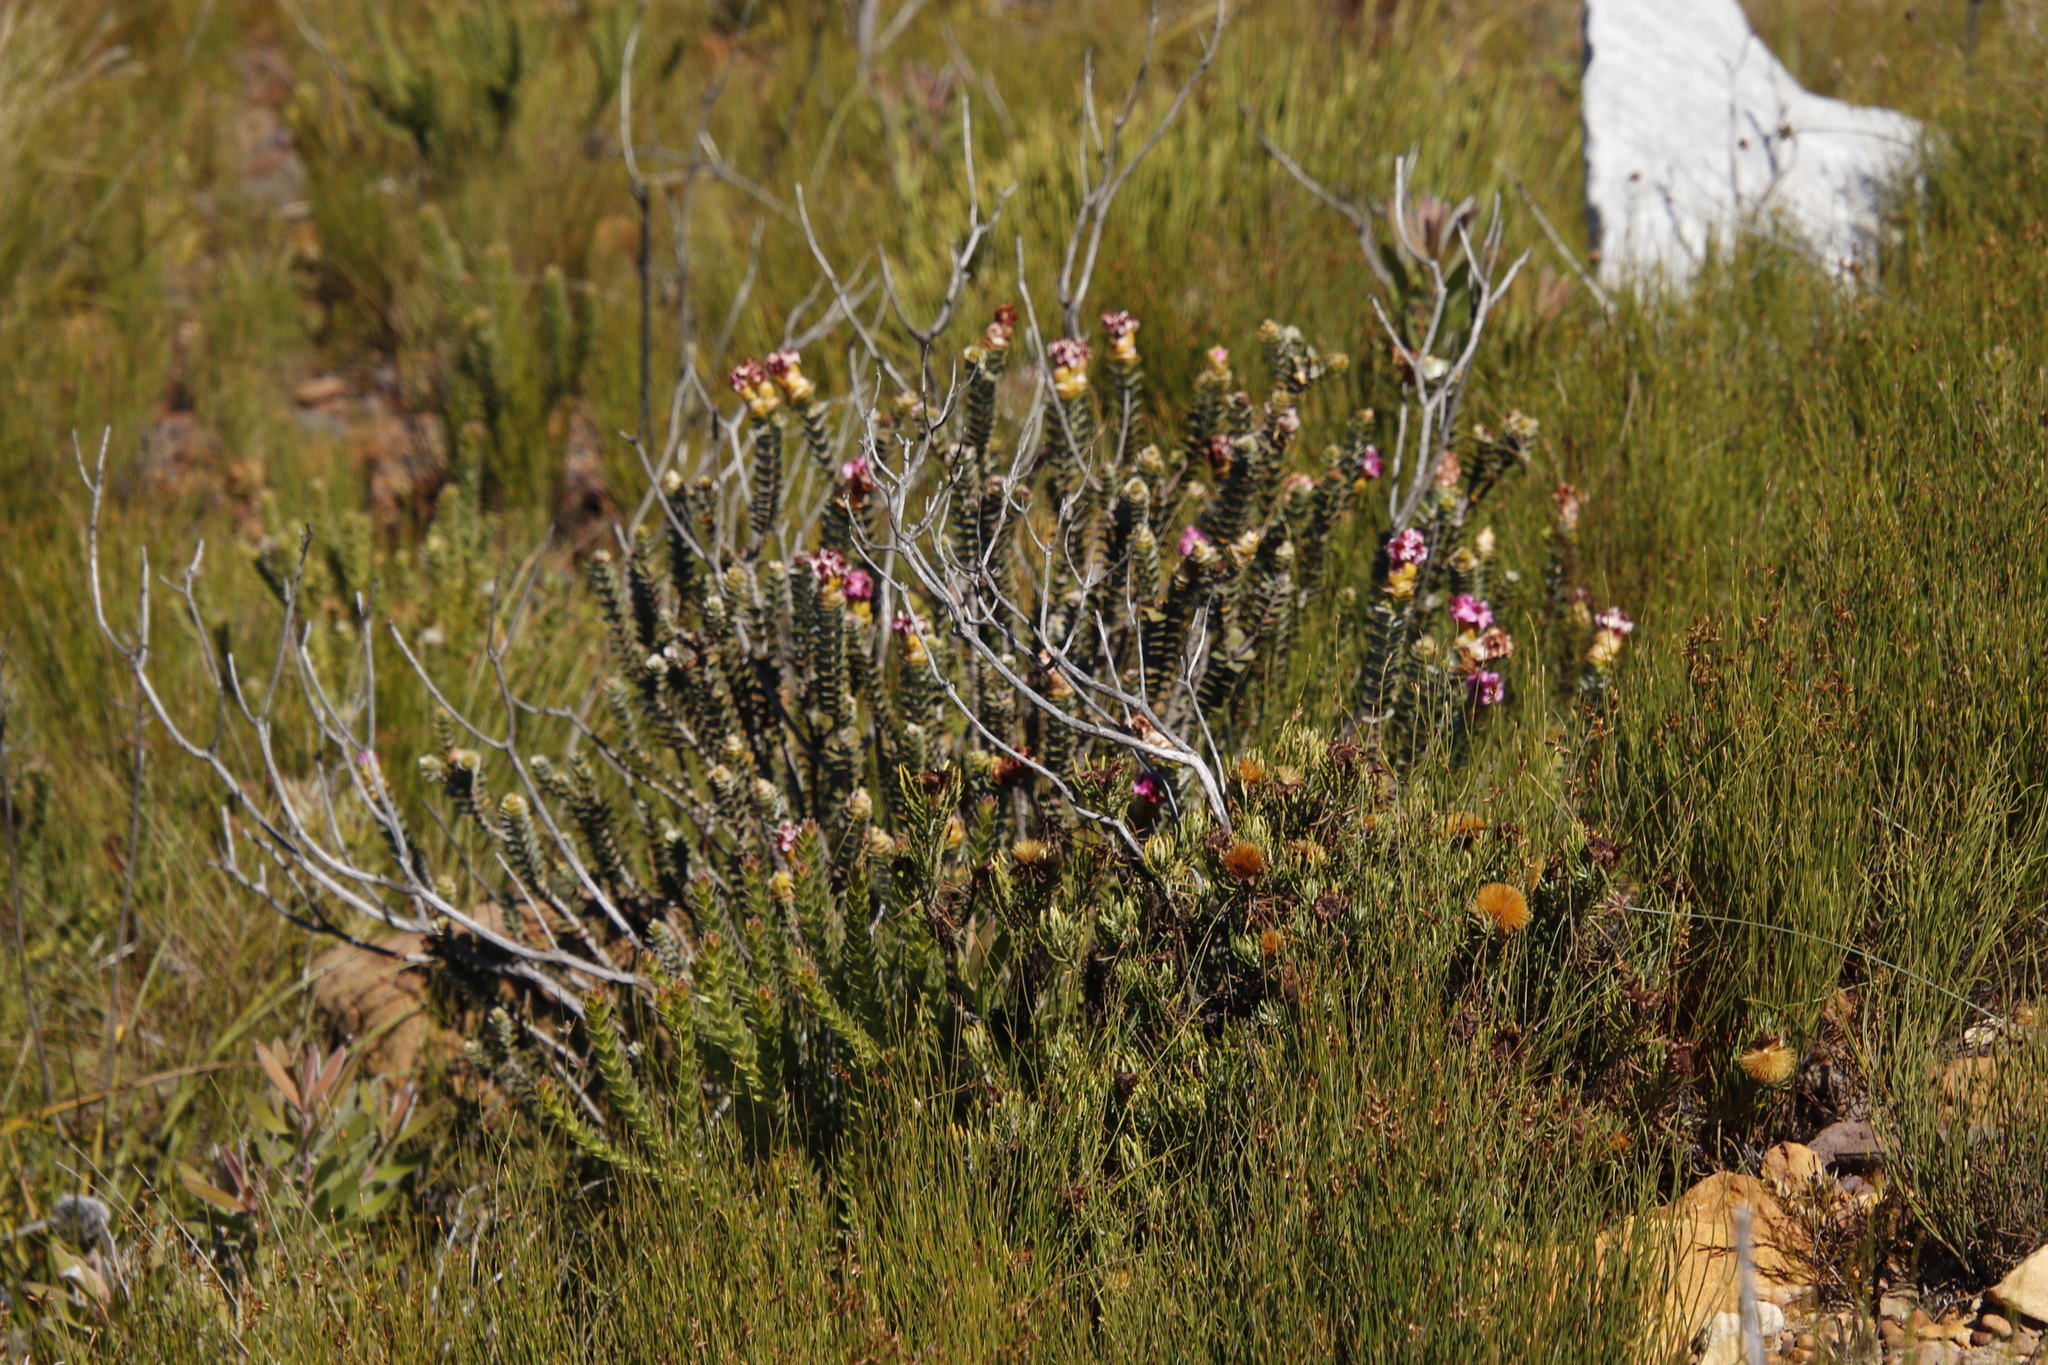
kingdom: Plantae
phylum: Tracheophyta
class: Magnoliopsida
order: Myrtales
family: Penaeaceae
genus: Saltera
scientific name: Saltera sarcocolla
